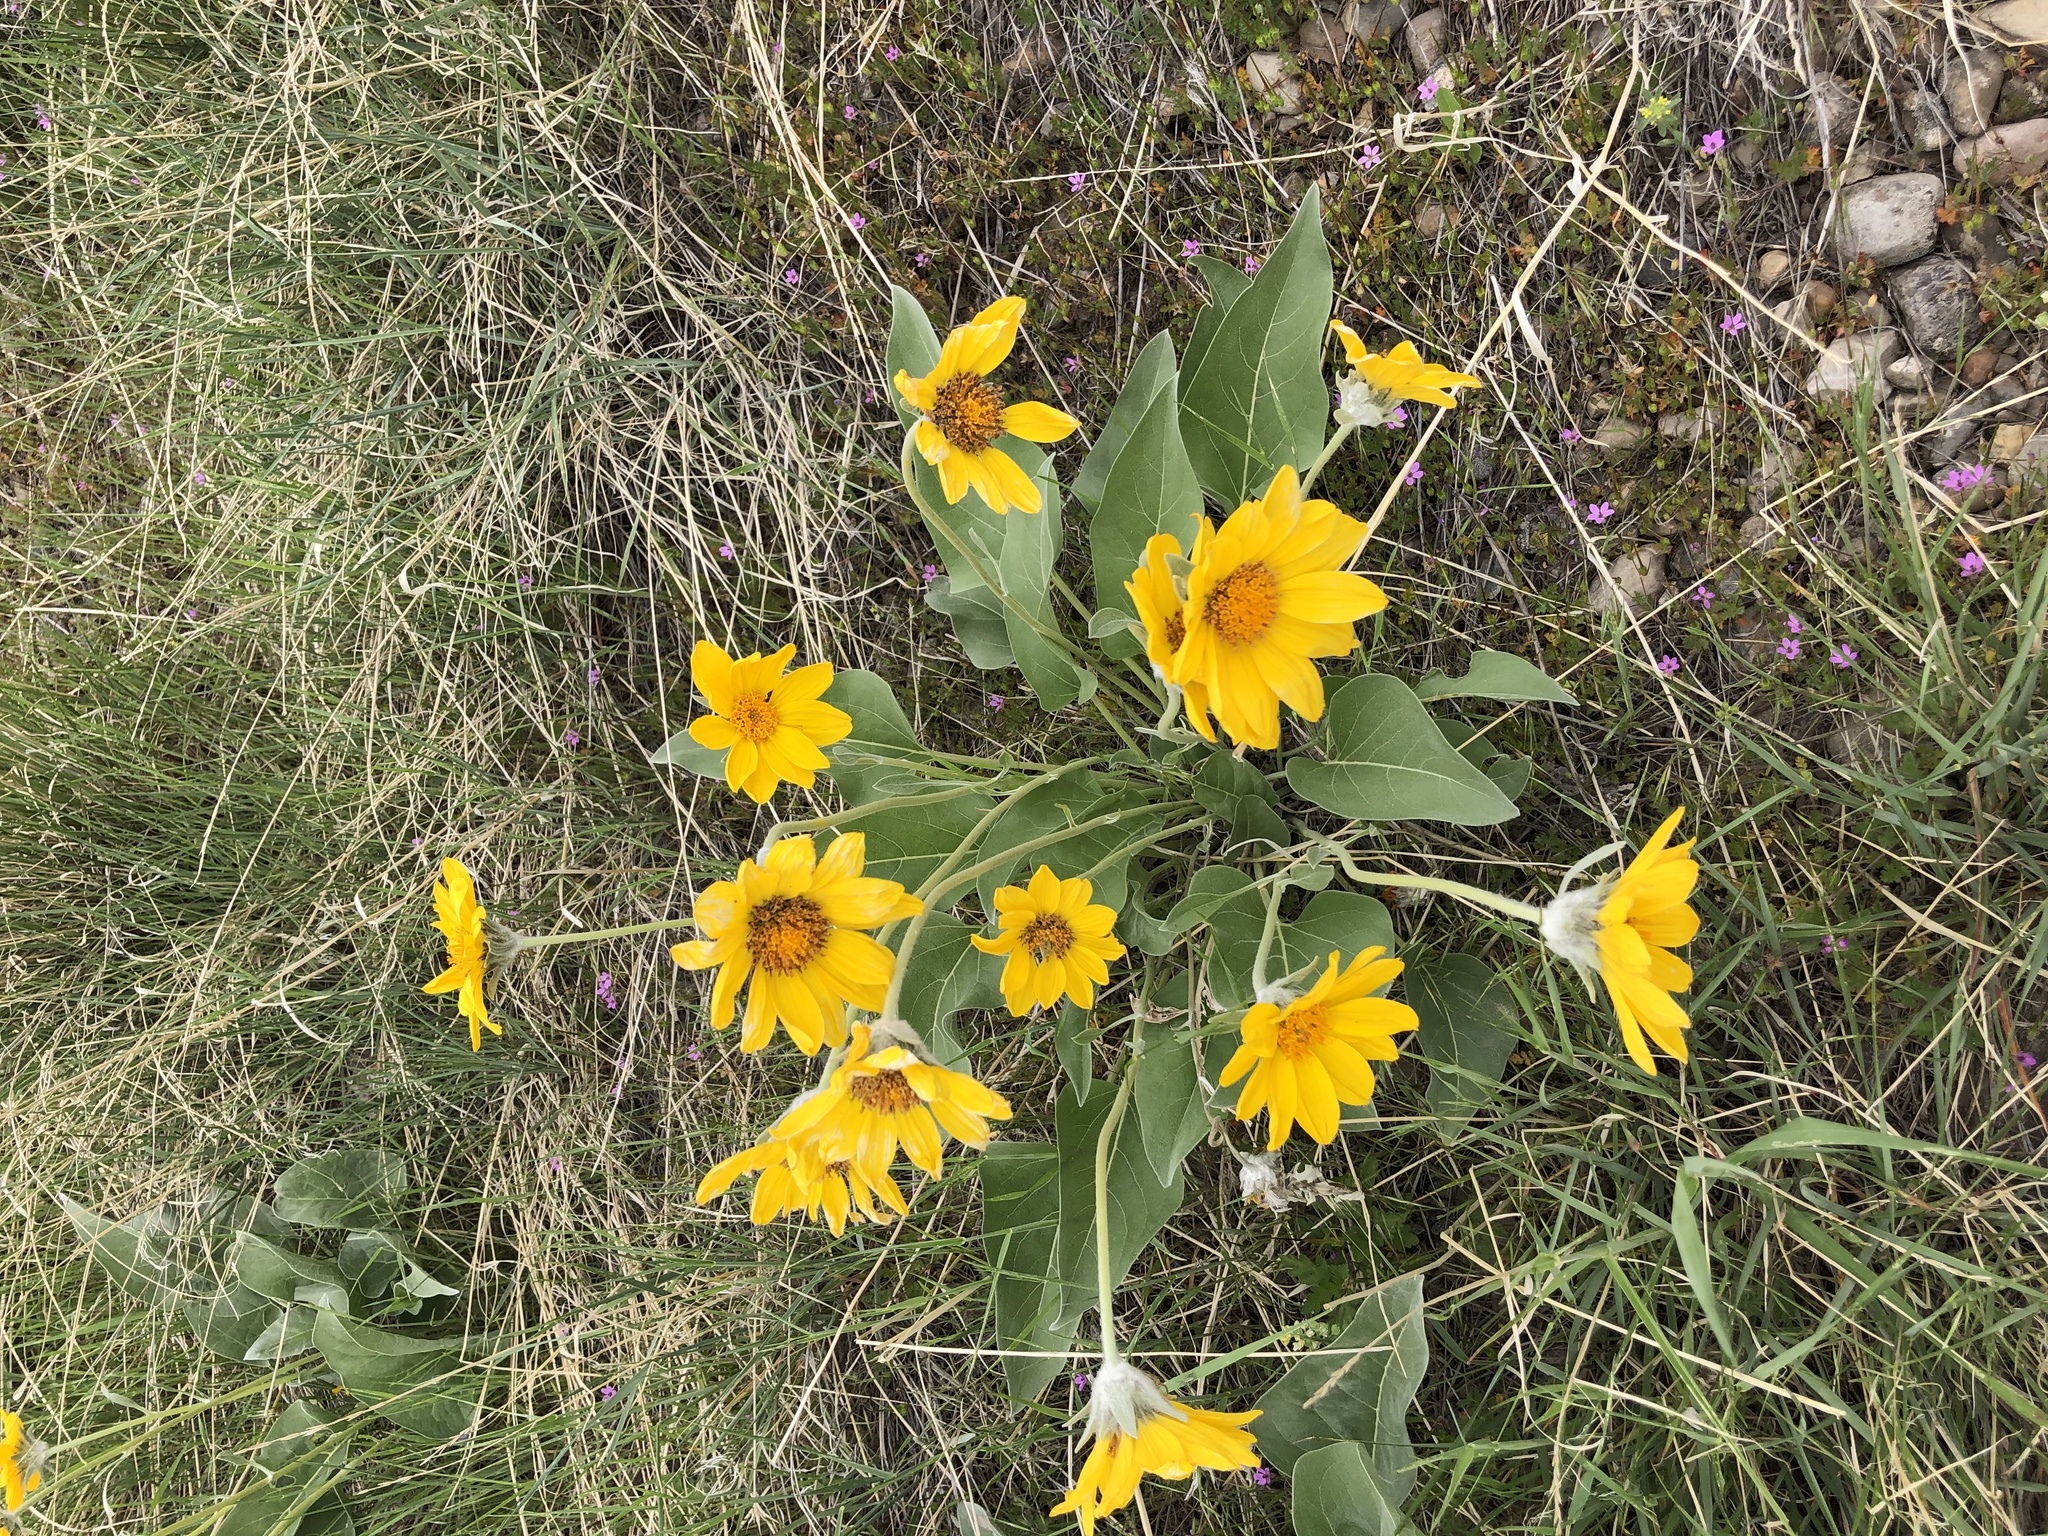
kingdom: Plantae
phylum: Tracheophyta
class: Magnoliopsida
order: Asterales
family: Asteraceae
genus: Wyethia
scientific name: Wyethia sagittata
